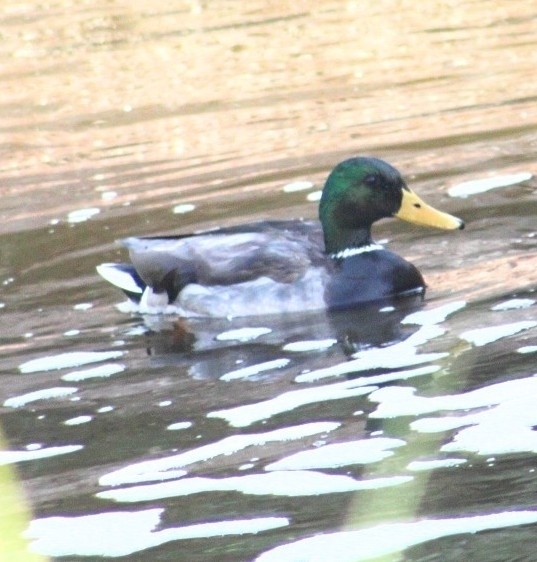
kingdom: Animalia
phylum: Chordata
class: Aves
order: Anseriformes
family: Anatidae
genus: Anas
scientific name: Anas platyrhynchos
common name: Mallard
